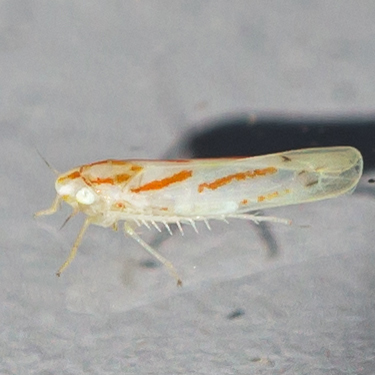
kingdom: Animalia
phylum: Arthropoda
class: Insecta
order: Hemiptera
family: Cicadellidae
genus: Dikrella
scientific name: Dikrella cruentata
